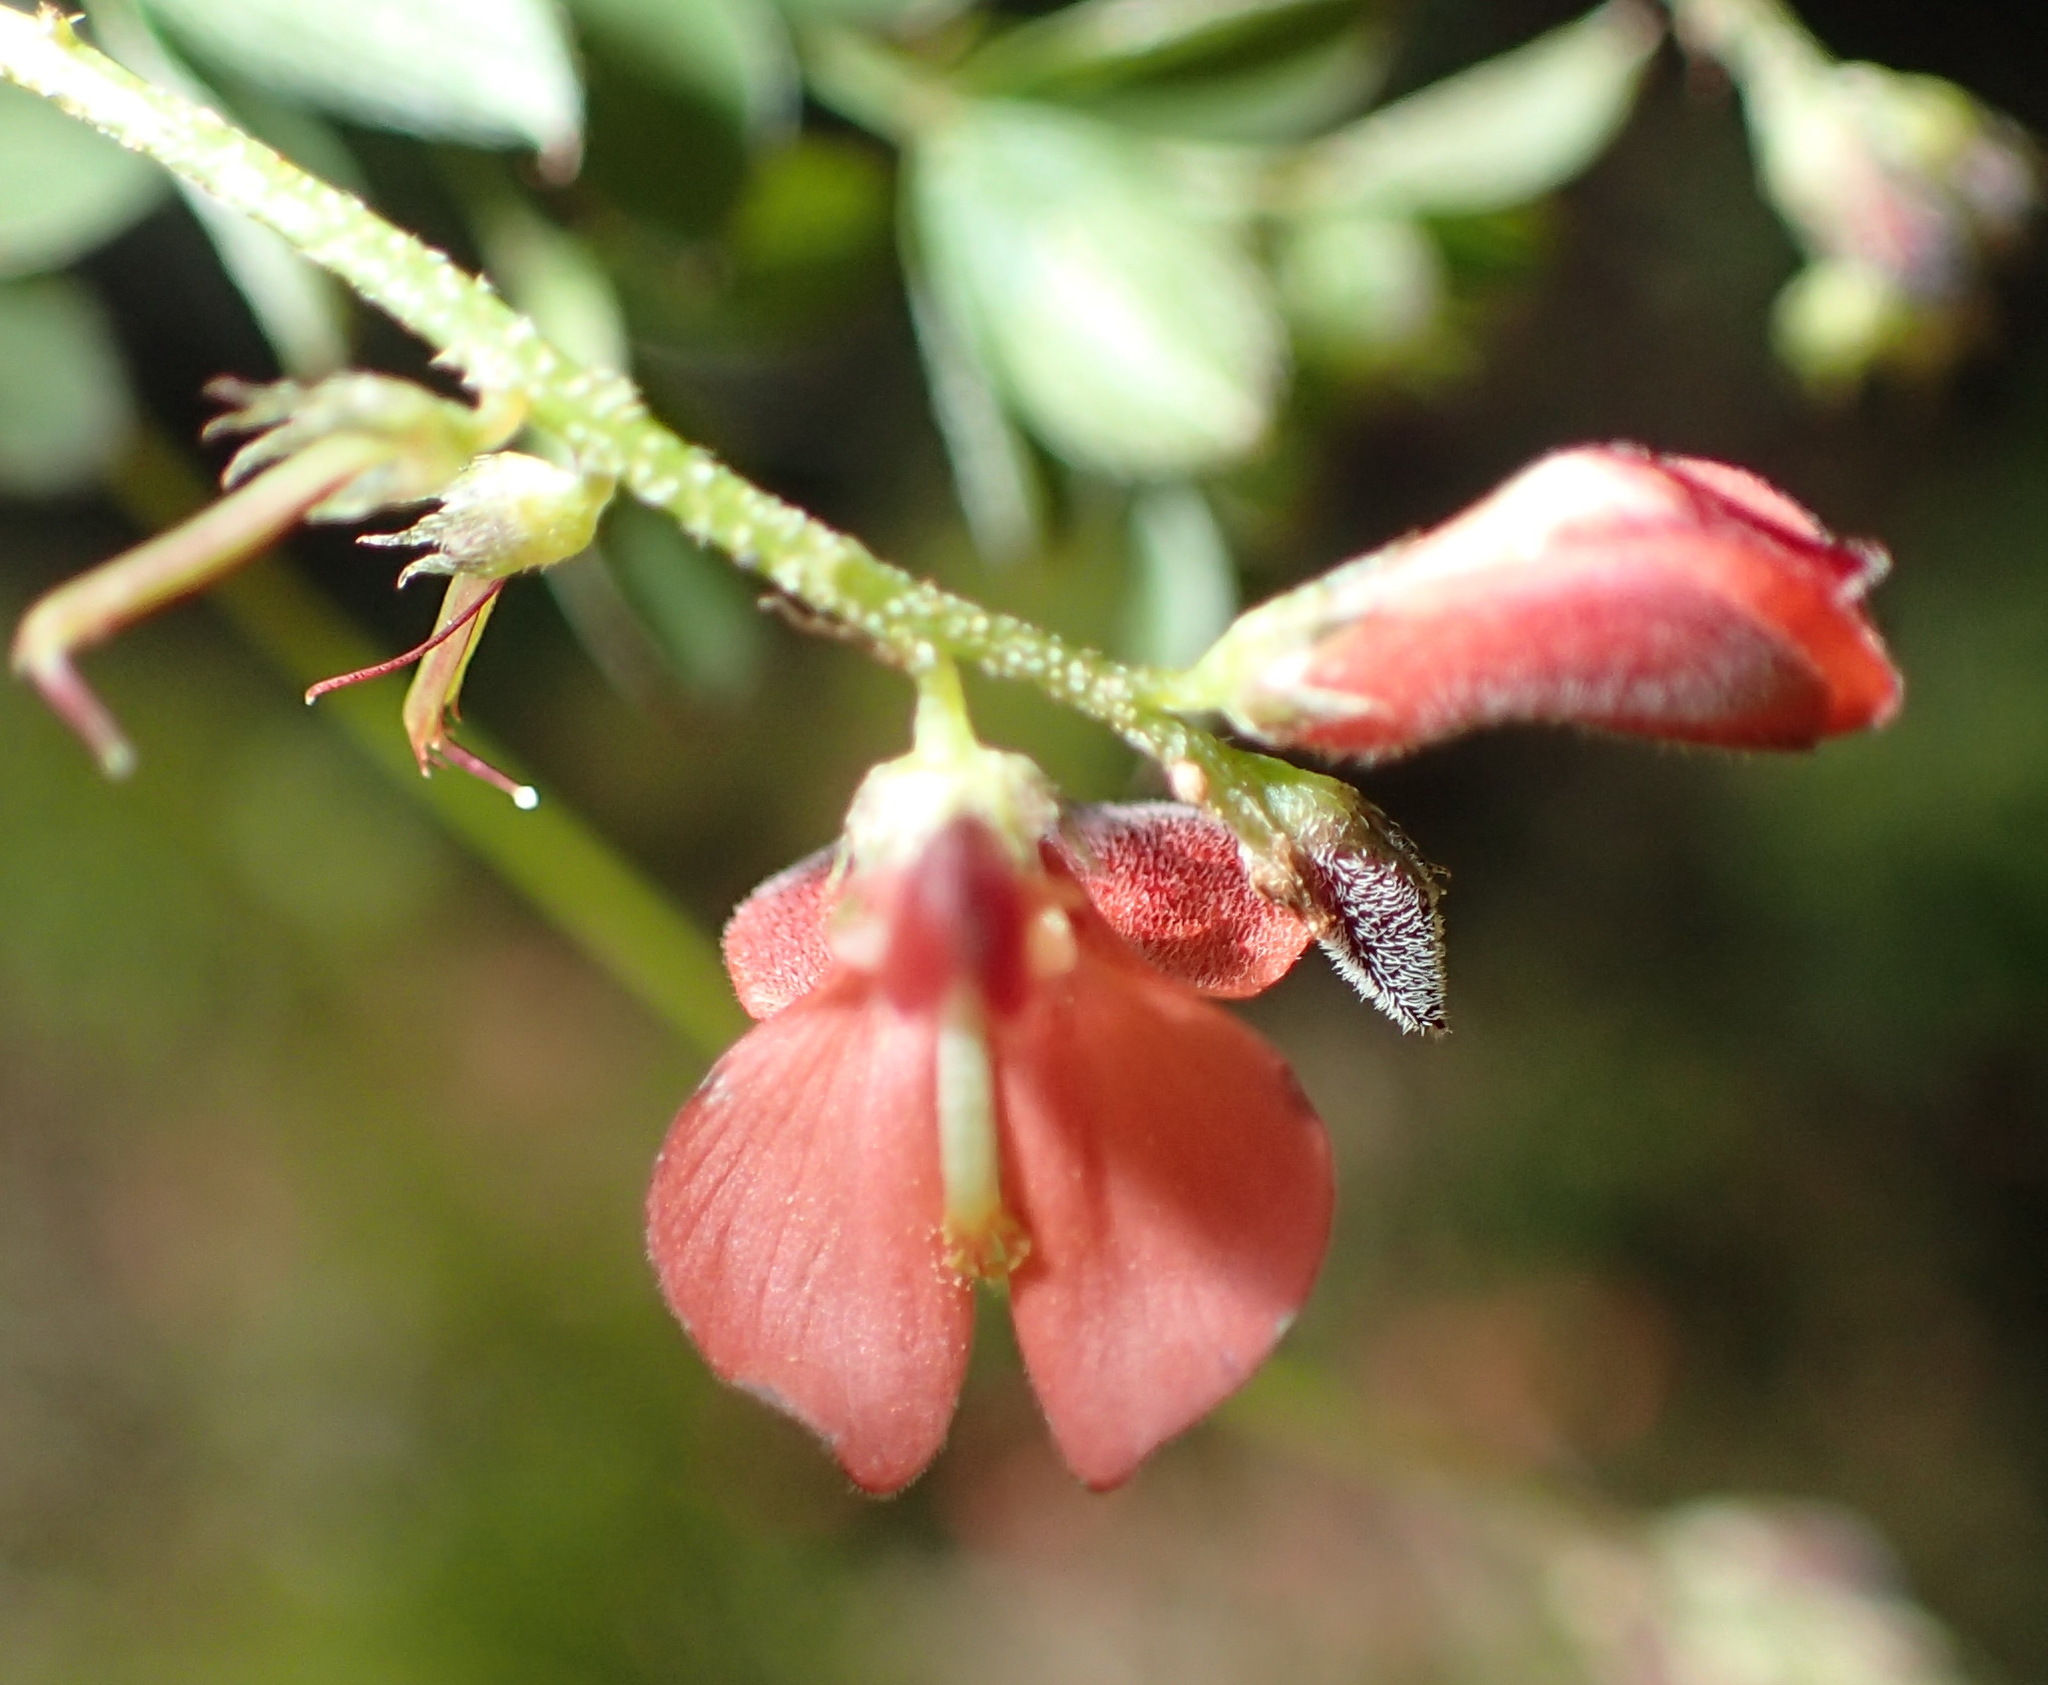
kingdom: Plantae
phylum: Tracheophyta
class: Magnoliopsida
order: Fabales
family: Fabaceae
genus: Indigofera
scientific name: Indigofera erecta
